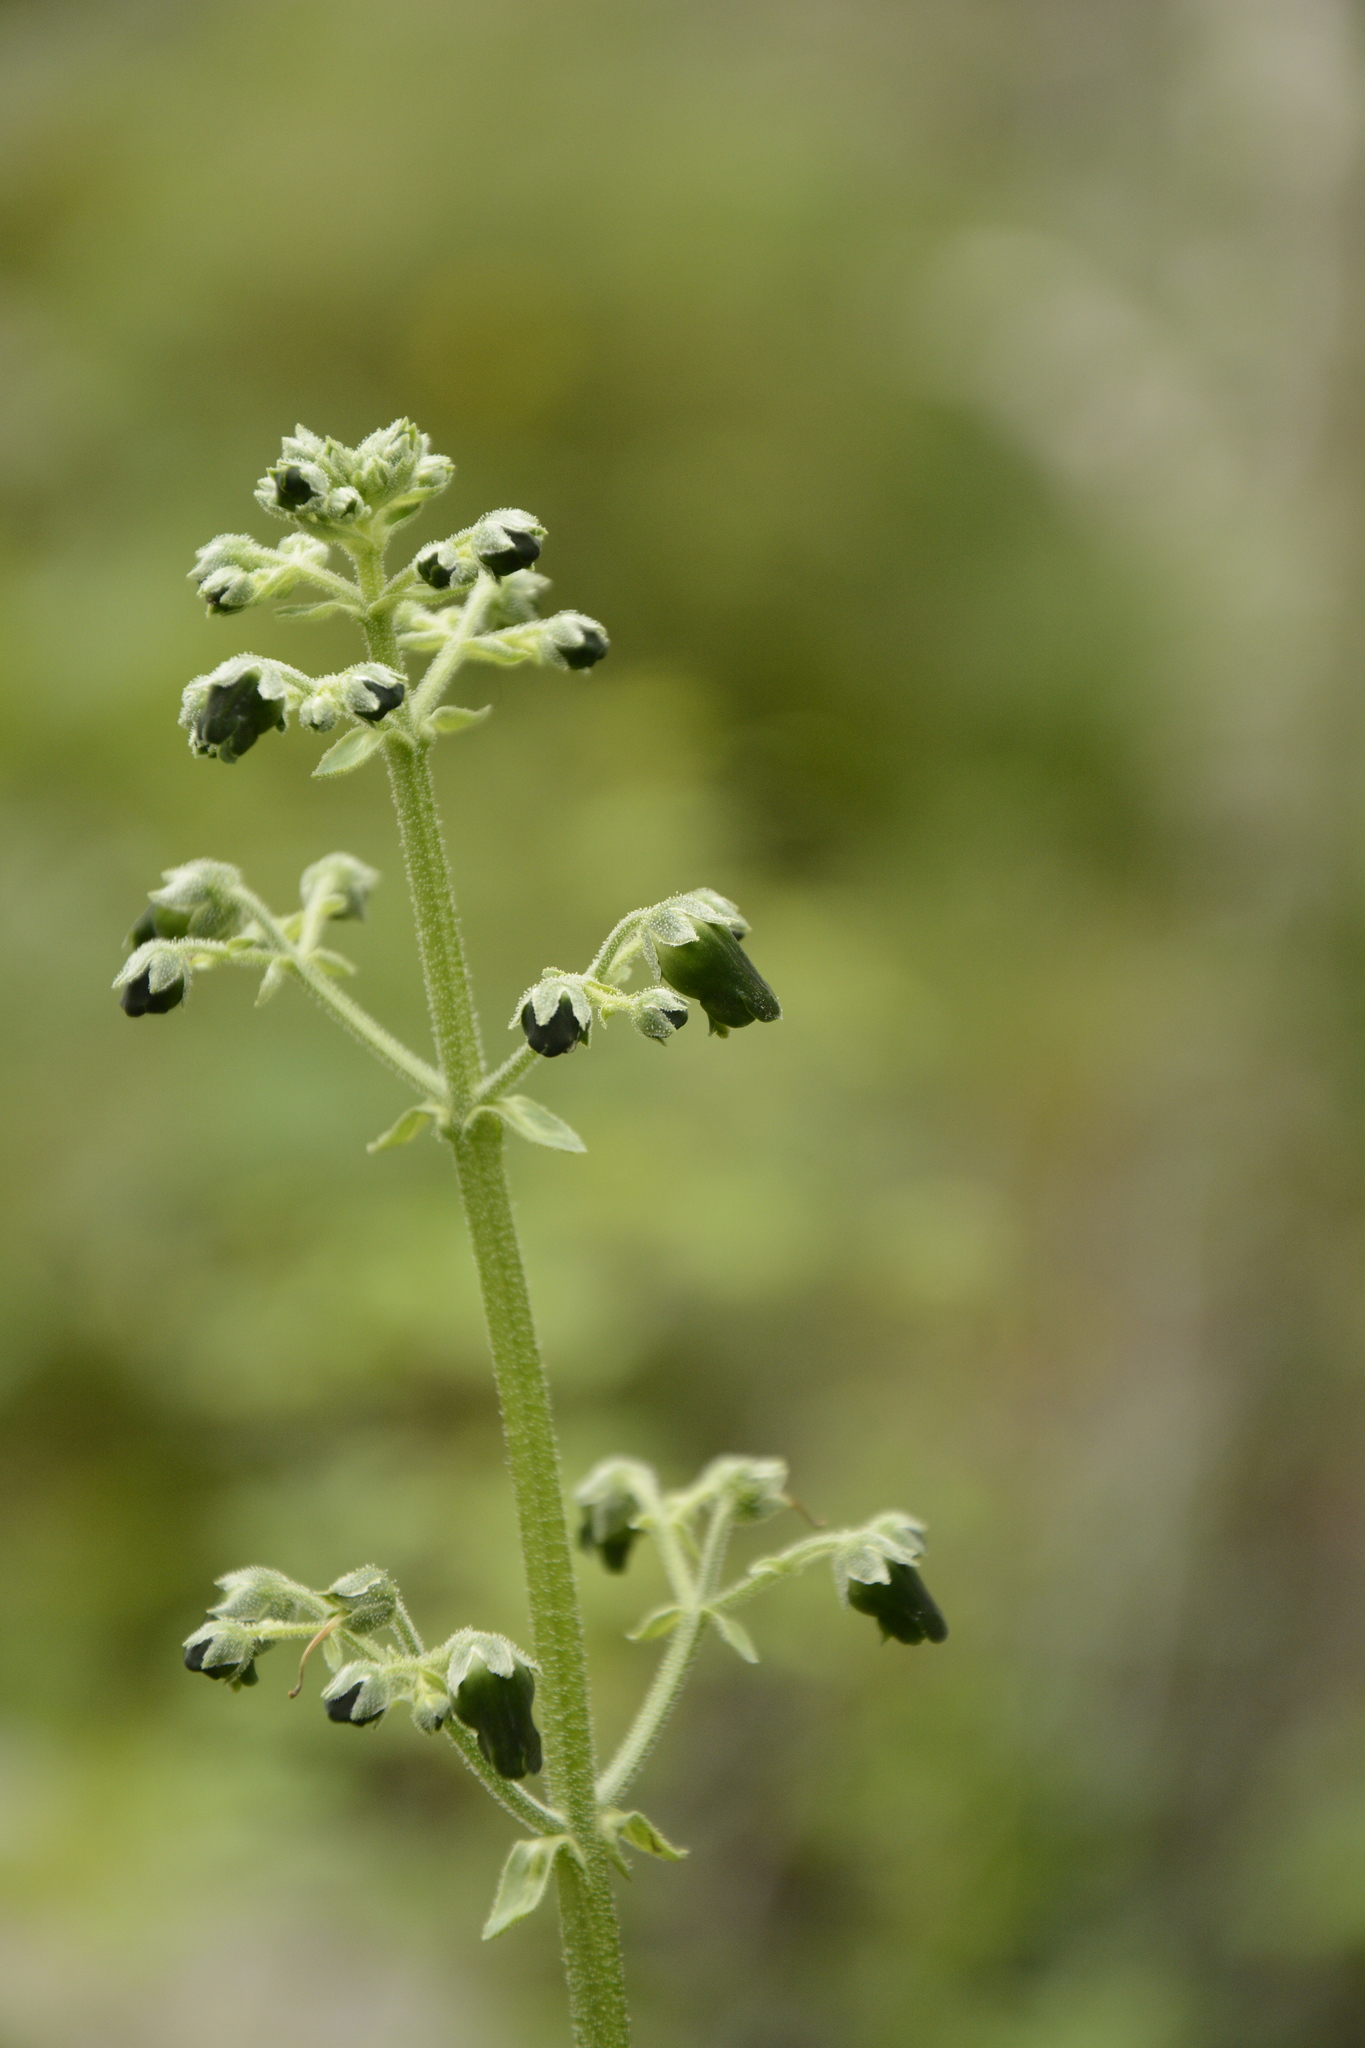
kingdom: Plantae
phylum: Tracheophyta
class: Magnoliopsida
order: Lamiales
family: Scrophulariaceae
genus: Scrophularia
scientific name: Scrophularia edgeworthii
